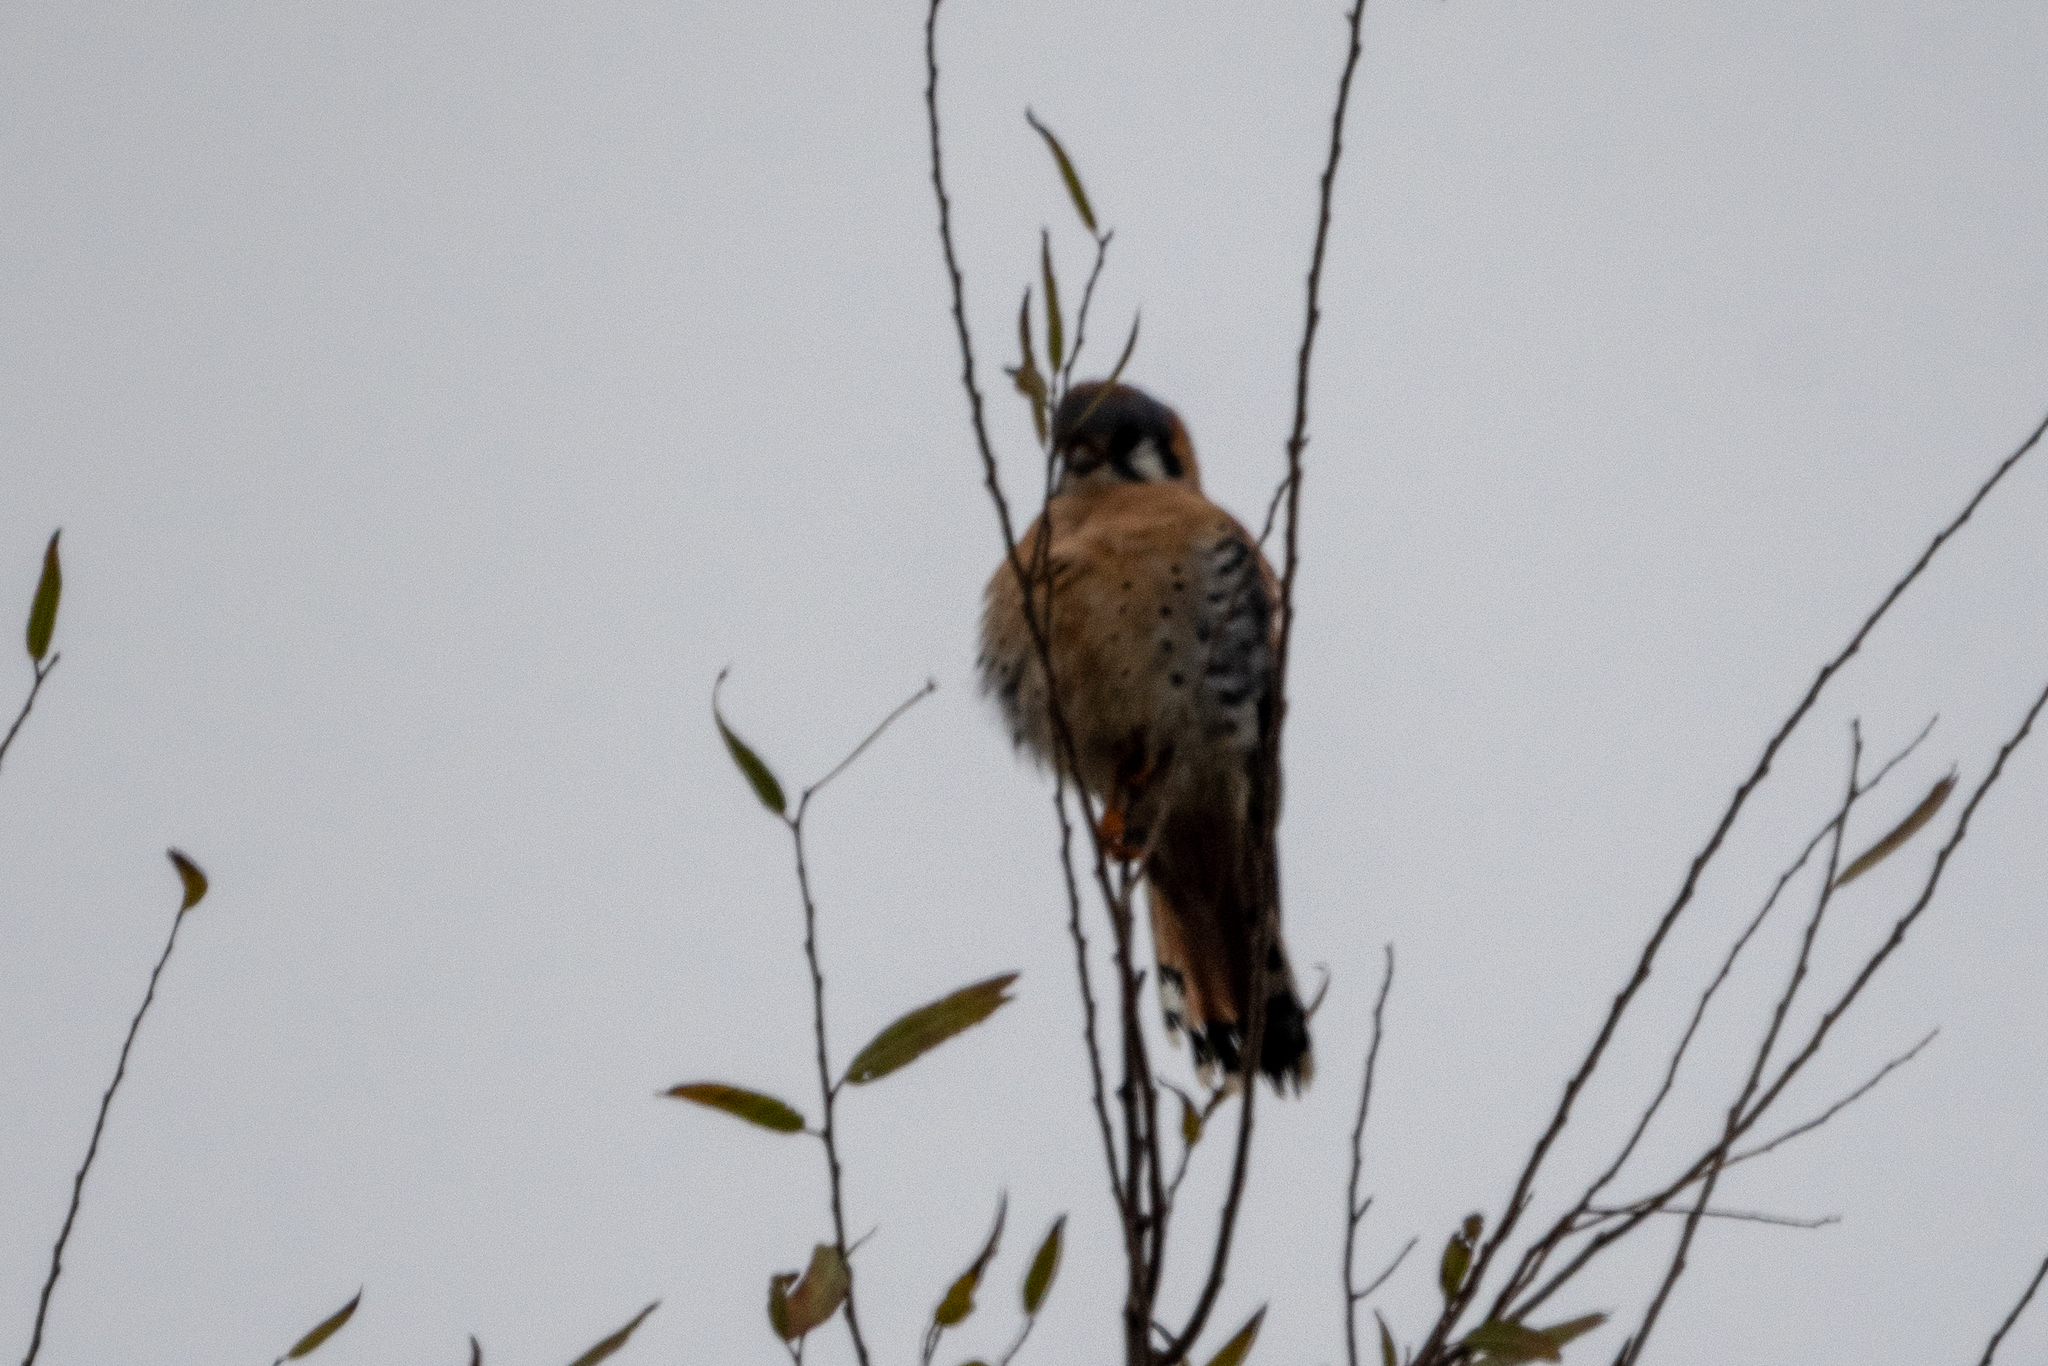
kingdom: Animalia
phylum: Chordata
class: Aves
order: Falconiformes
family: Falconidae
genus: Falco
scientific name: Falco sparverius
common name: American kestrel
